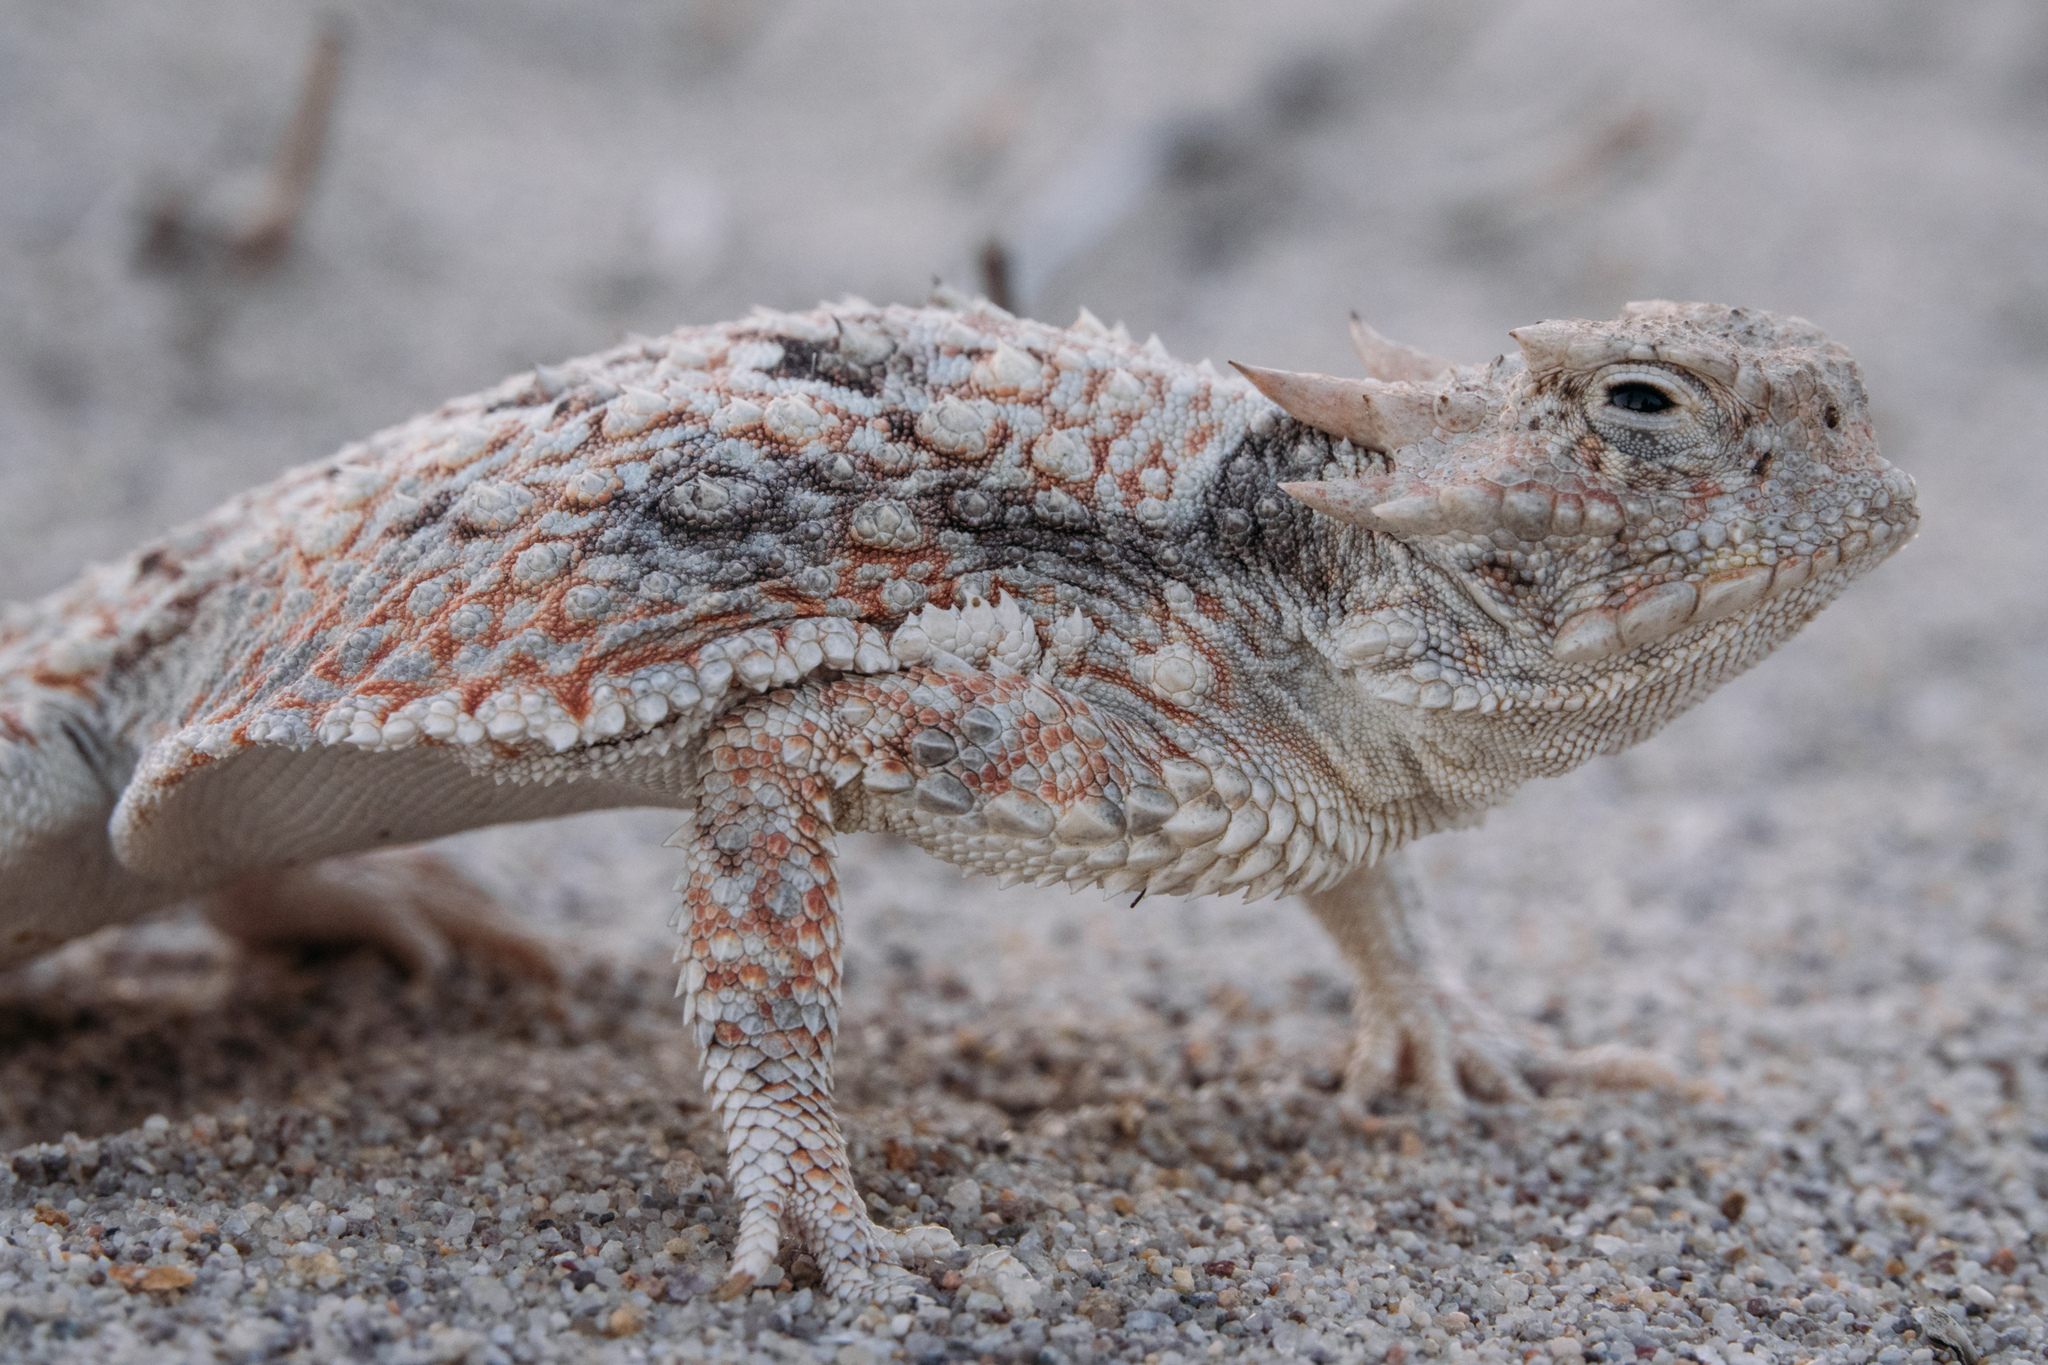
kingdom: Animalia
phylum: Chordata
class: Squamata
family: Phrynosomatidae
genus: Phrynosoma
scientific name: Phrynosoma platyrhinos
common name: Desert horned lizard
